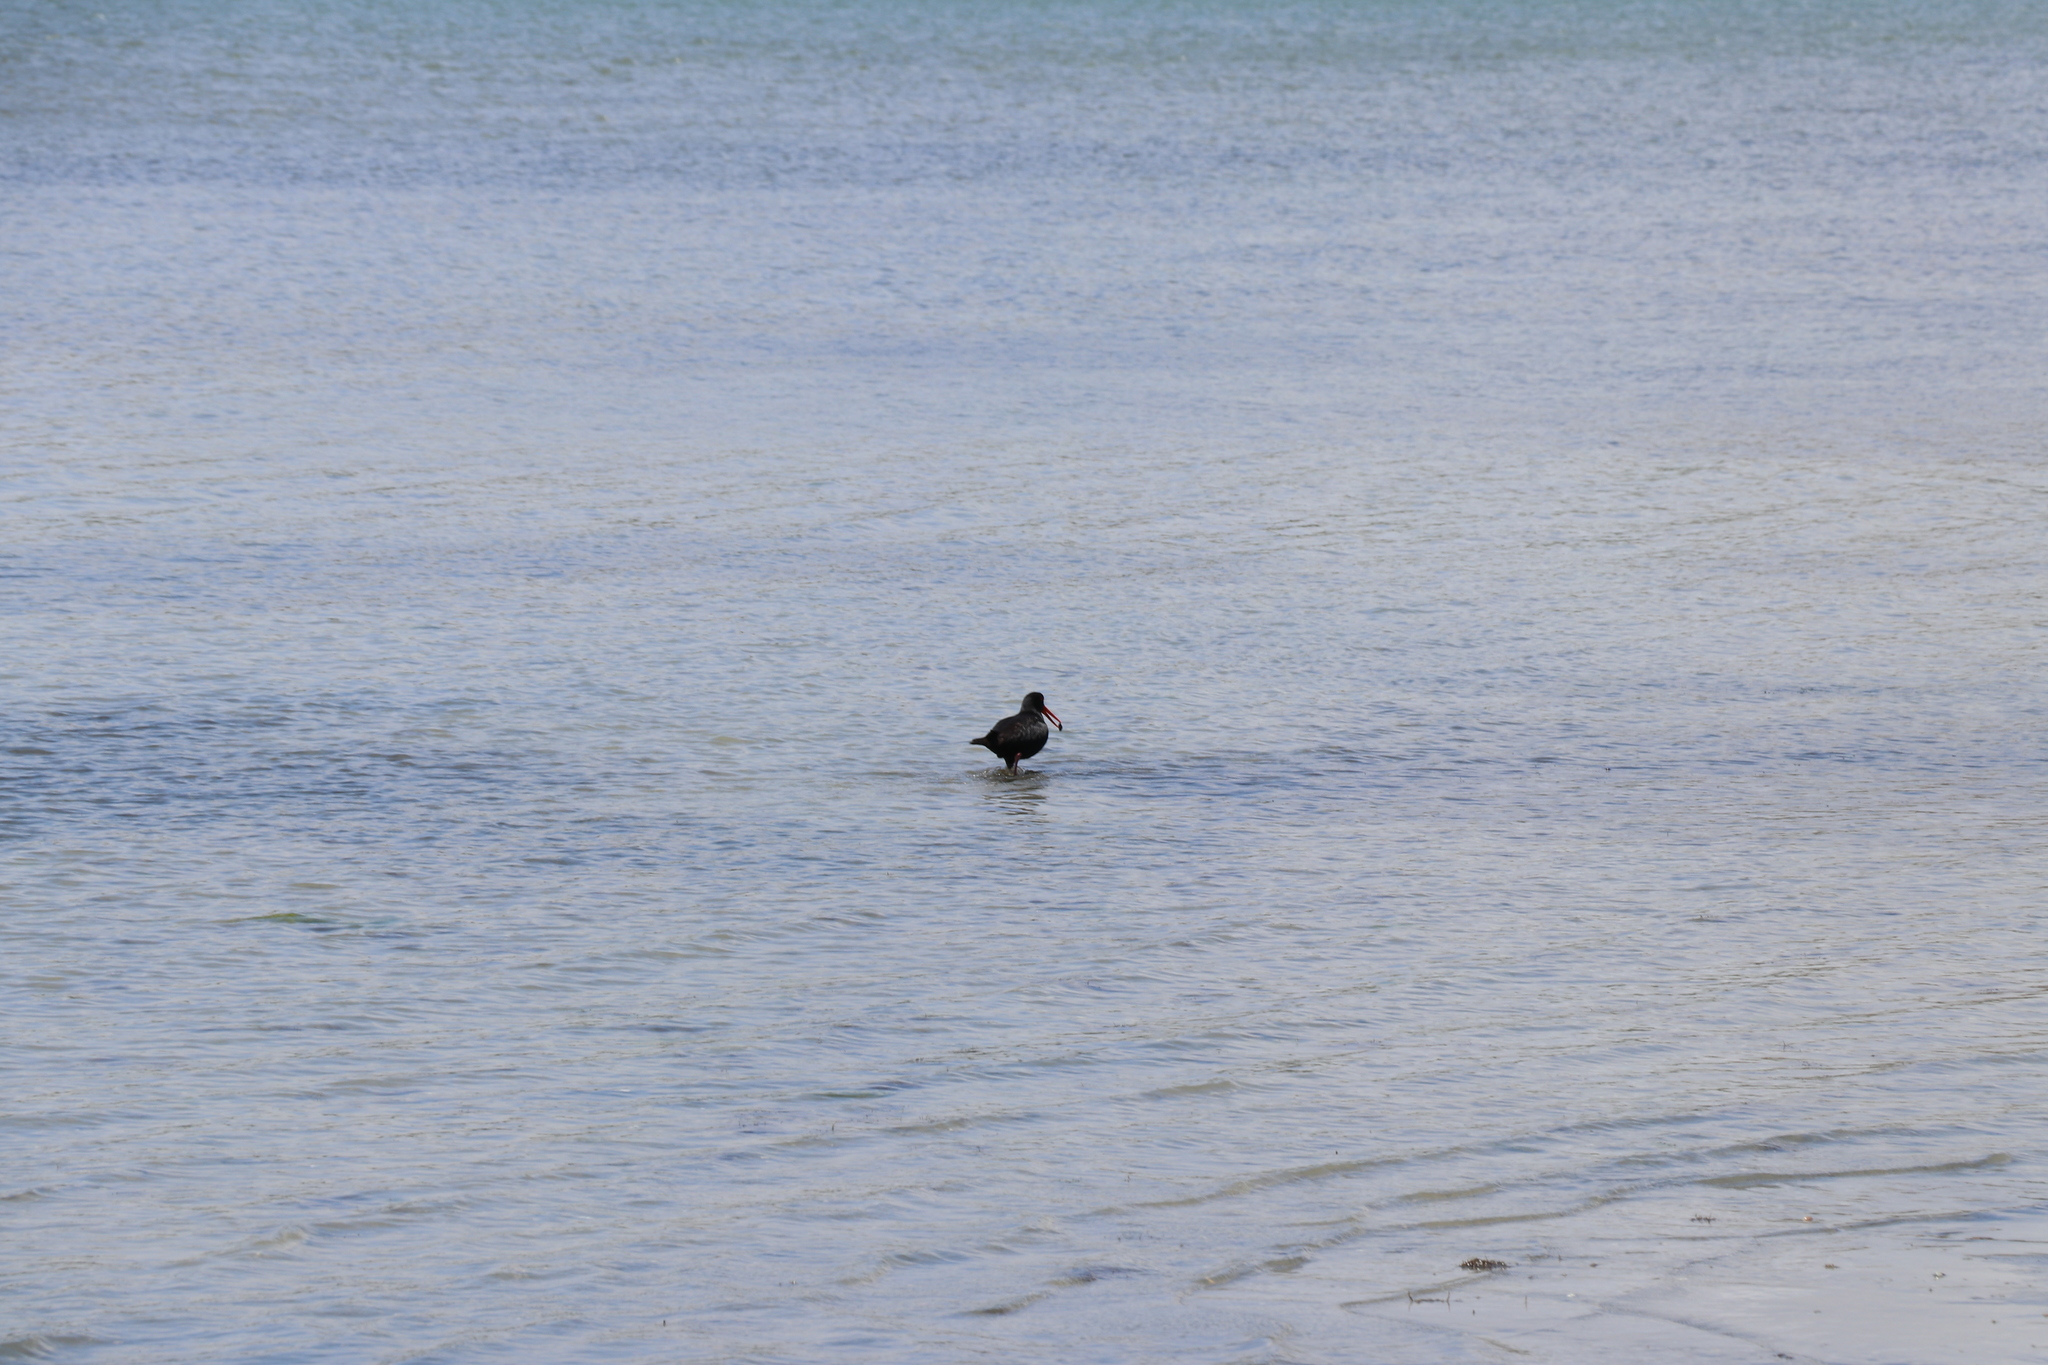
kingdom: Animalia
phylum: Chordata
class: Aves
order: Charadriiformes
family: Haematopodidae
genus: Haematopus
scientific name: Haematopus unicolor
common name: Variable oystercatcher
